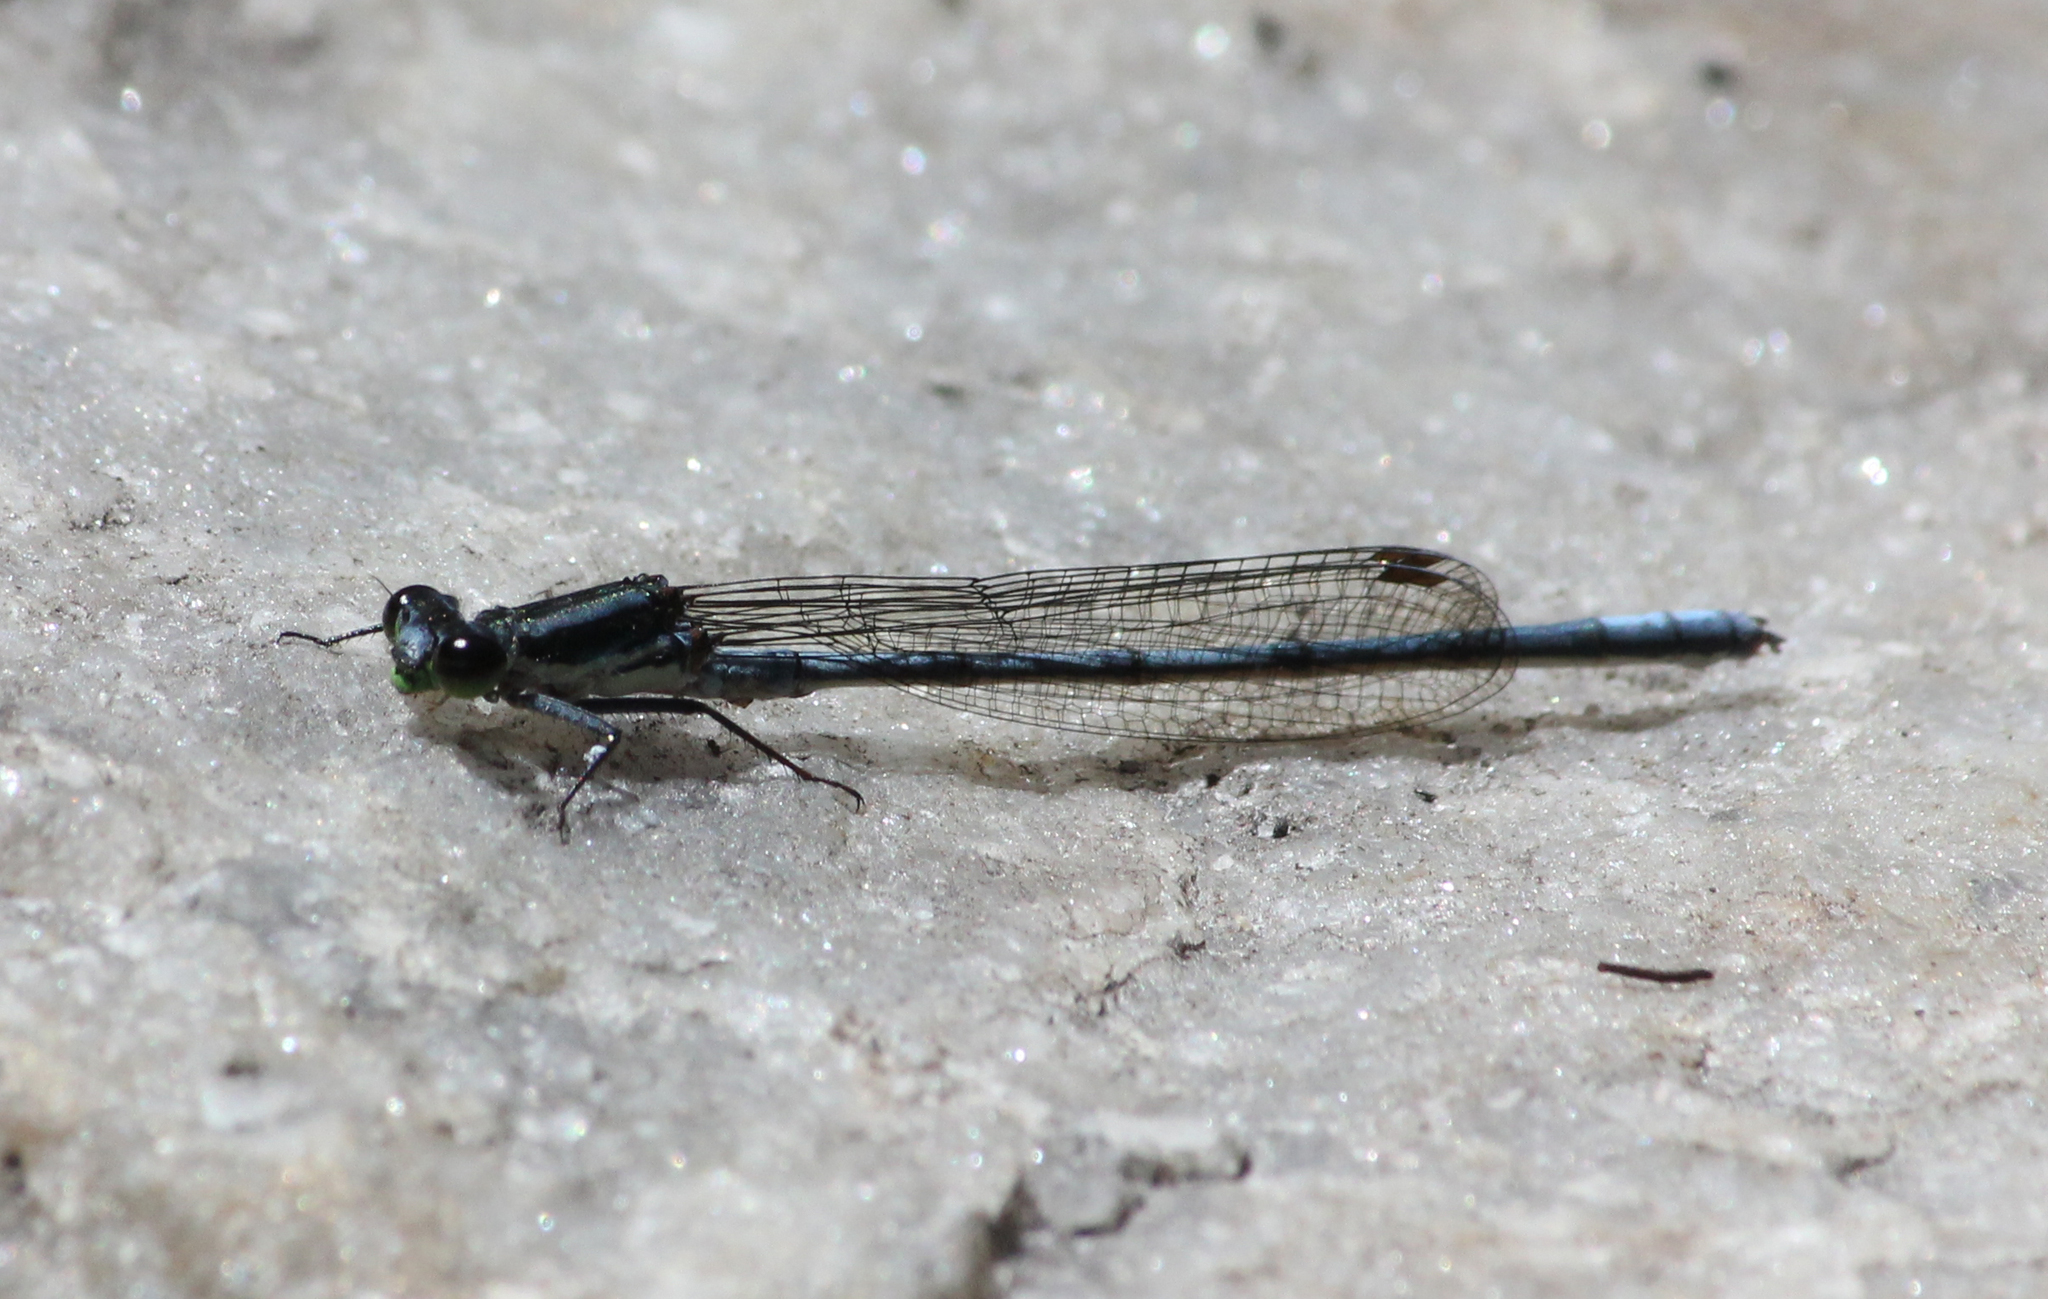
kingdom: Animalia
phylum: Arthropoda
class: Insecta
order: Odonata
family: Coenagrionidae
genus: Pseudagrion
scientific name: Pseudagrion furcigerum
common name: Palmiet sprite
